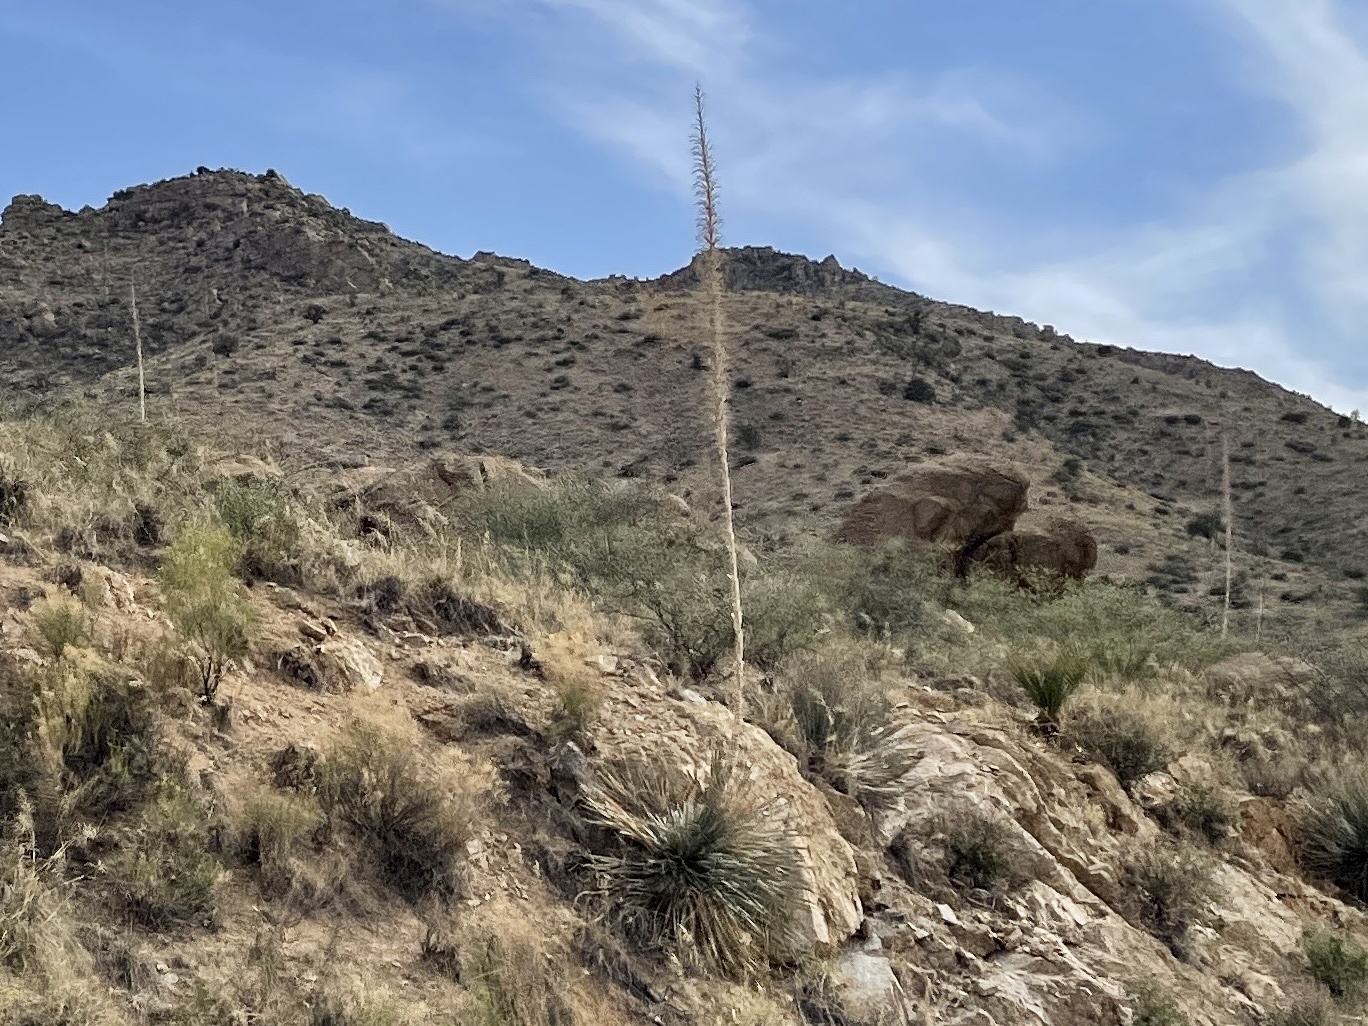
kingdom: Plantae
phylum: Tracheophyta
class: Liliopsida
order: Asparagales
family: Asparagaceae
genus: Dasylirion
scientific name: Dasylirion wheeleri
